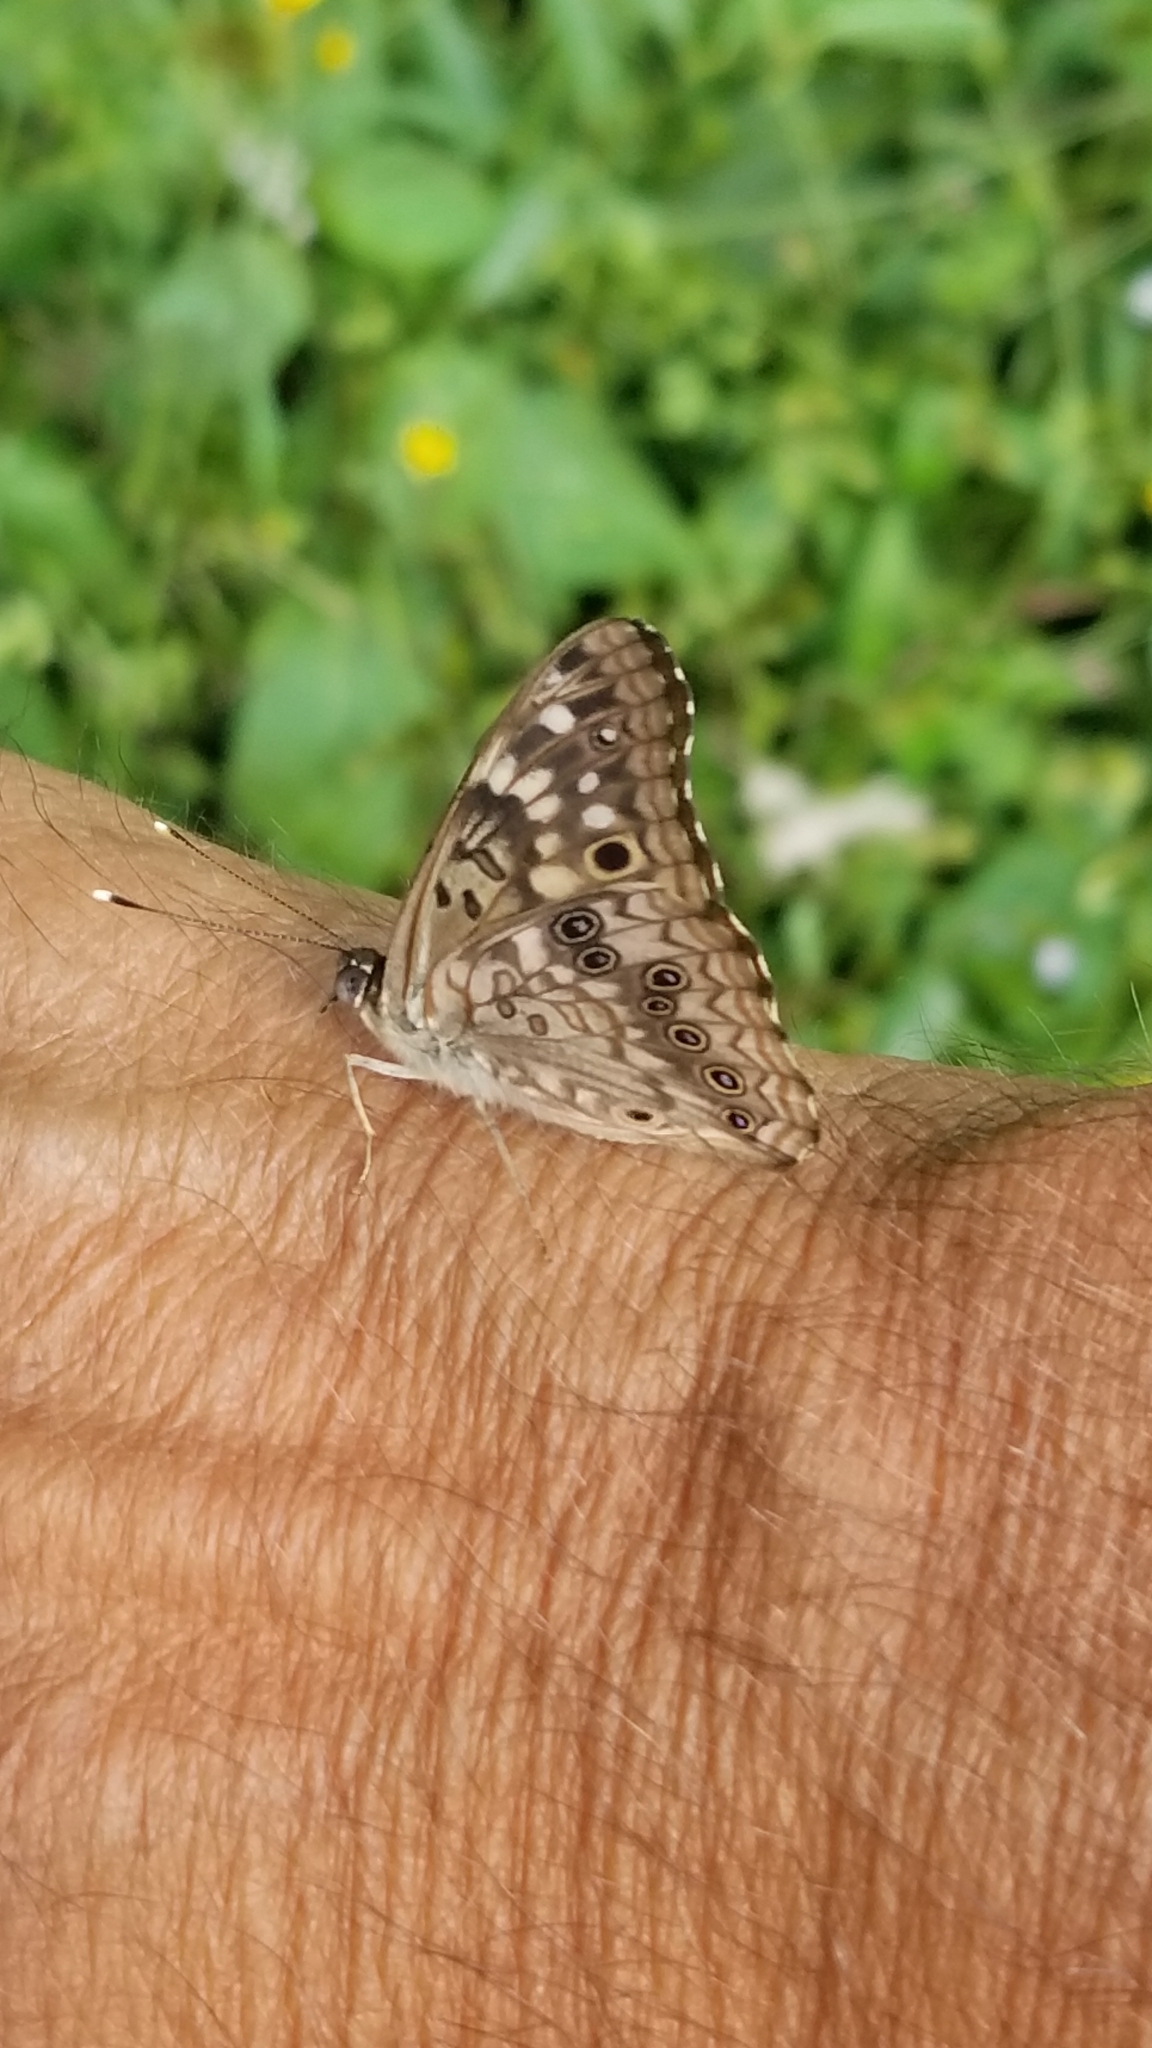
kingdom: Animalia
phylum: Arthropoda
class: Insecta
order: Lepidoptera
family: Nymphalidae
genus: Asterocampa
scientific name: Asterocampa celtis
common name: Hackberry emperor
